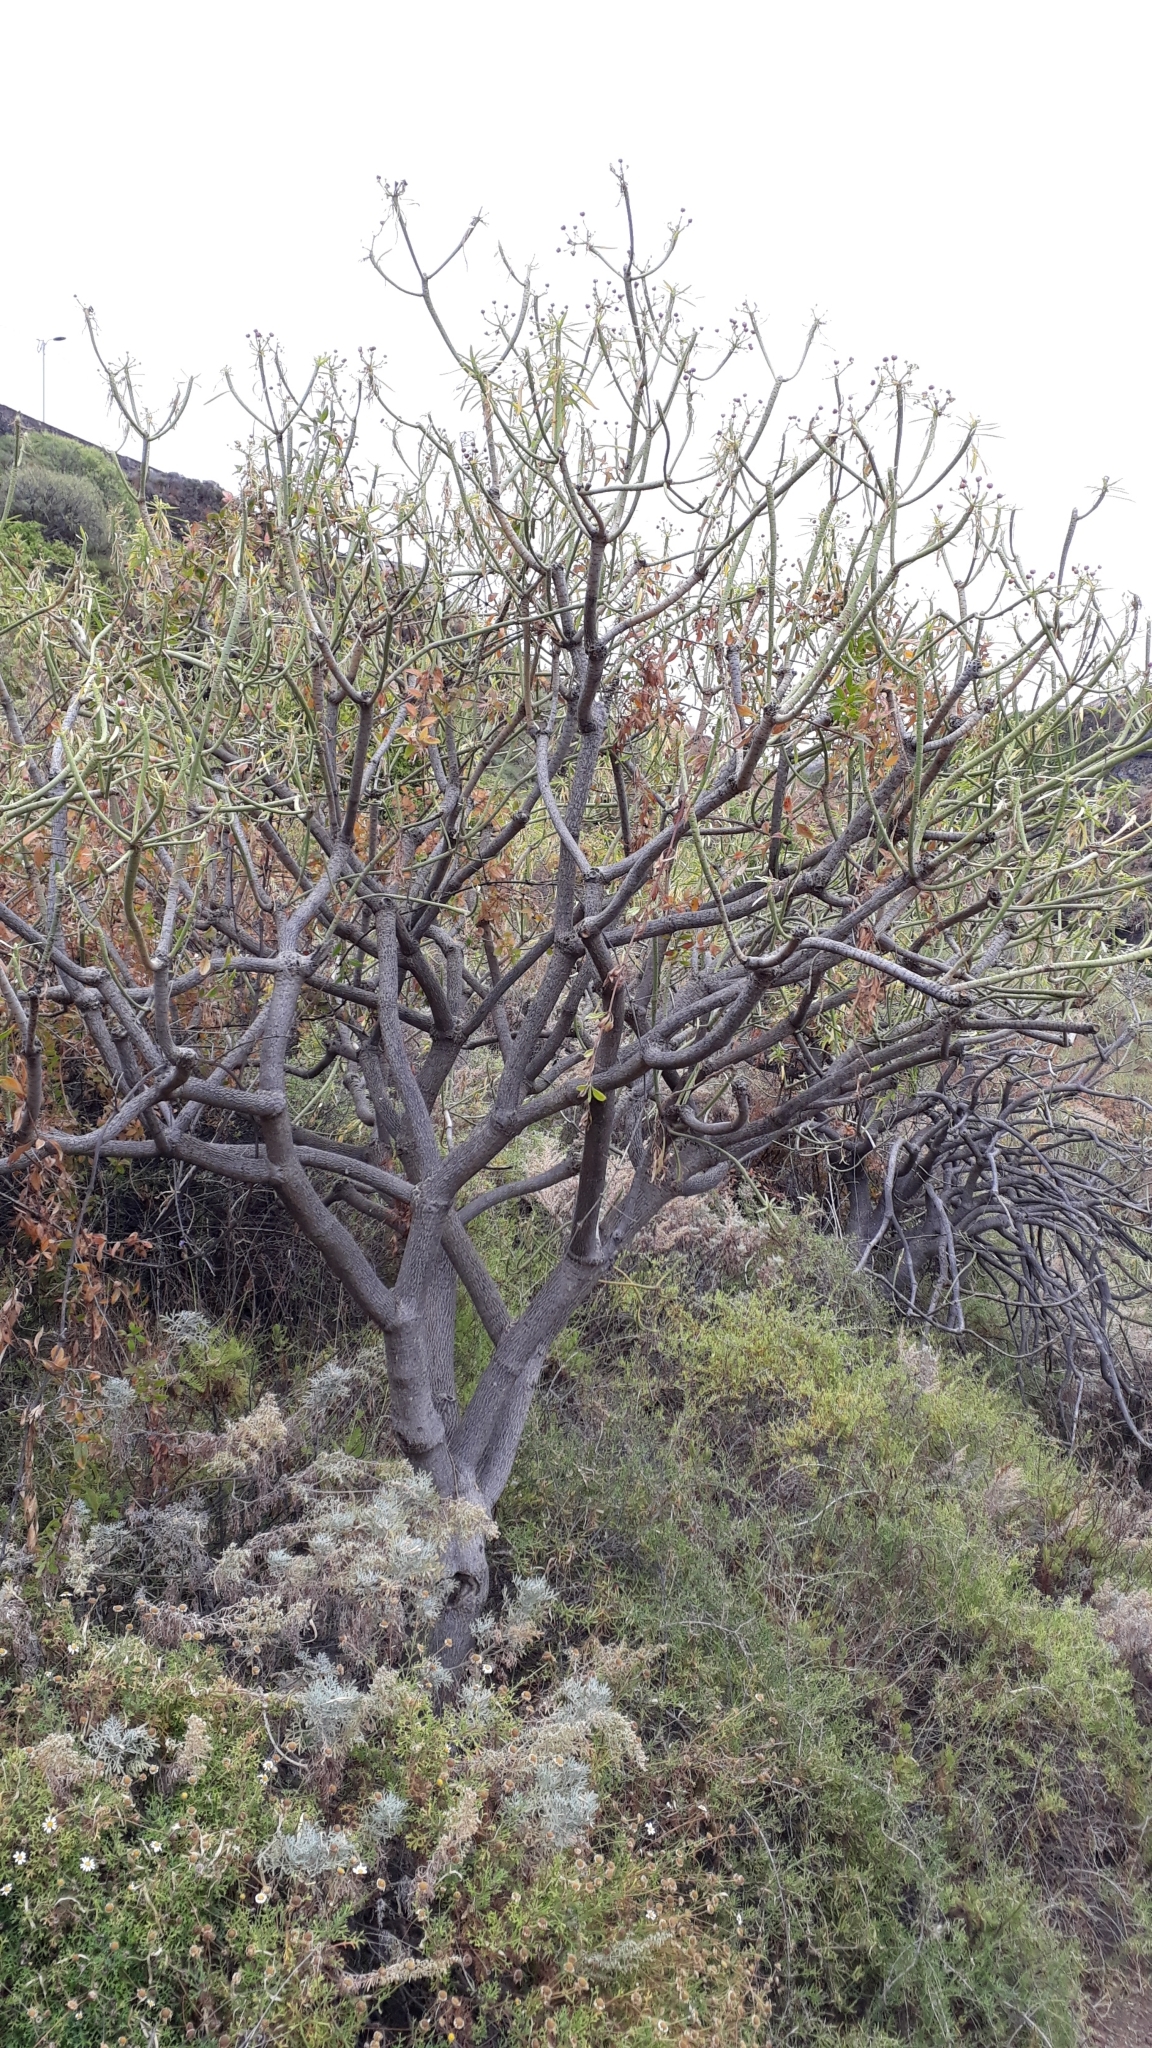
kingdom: Plantae
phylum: Tracheophyta
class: Magnoliopsida
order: Malpighiales
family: Euphorbiaceae
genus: Euphorbia
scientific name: Euphorbia lamarckii
